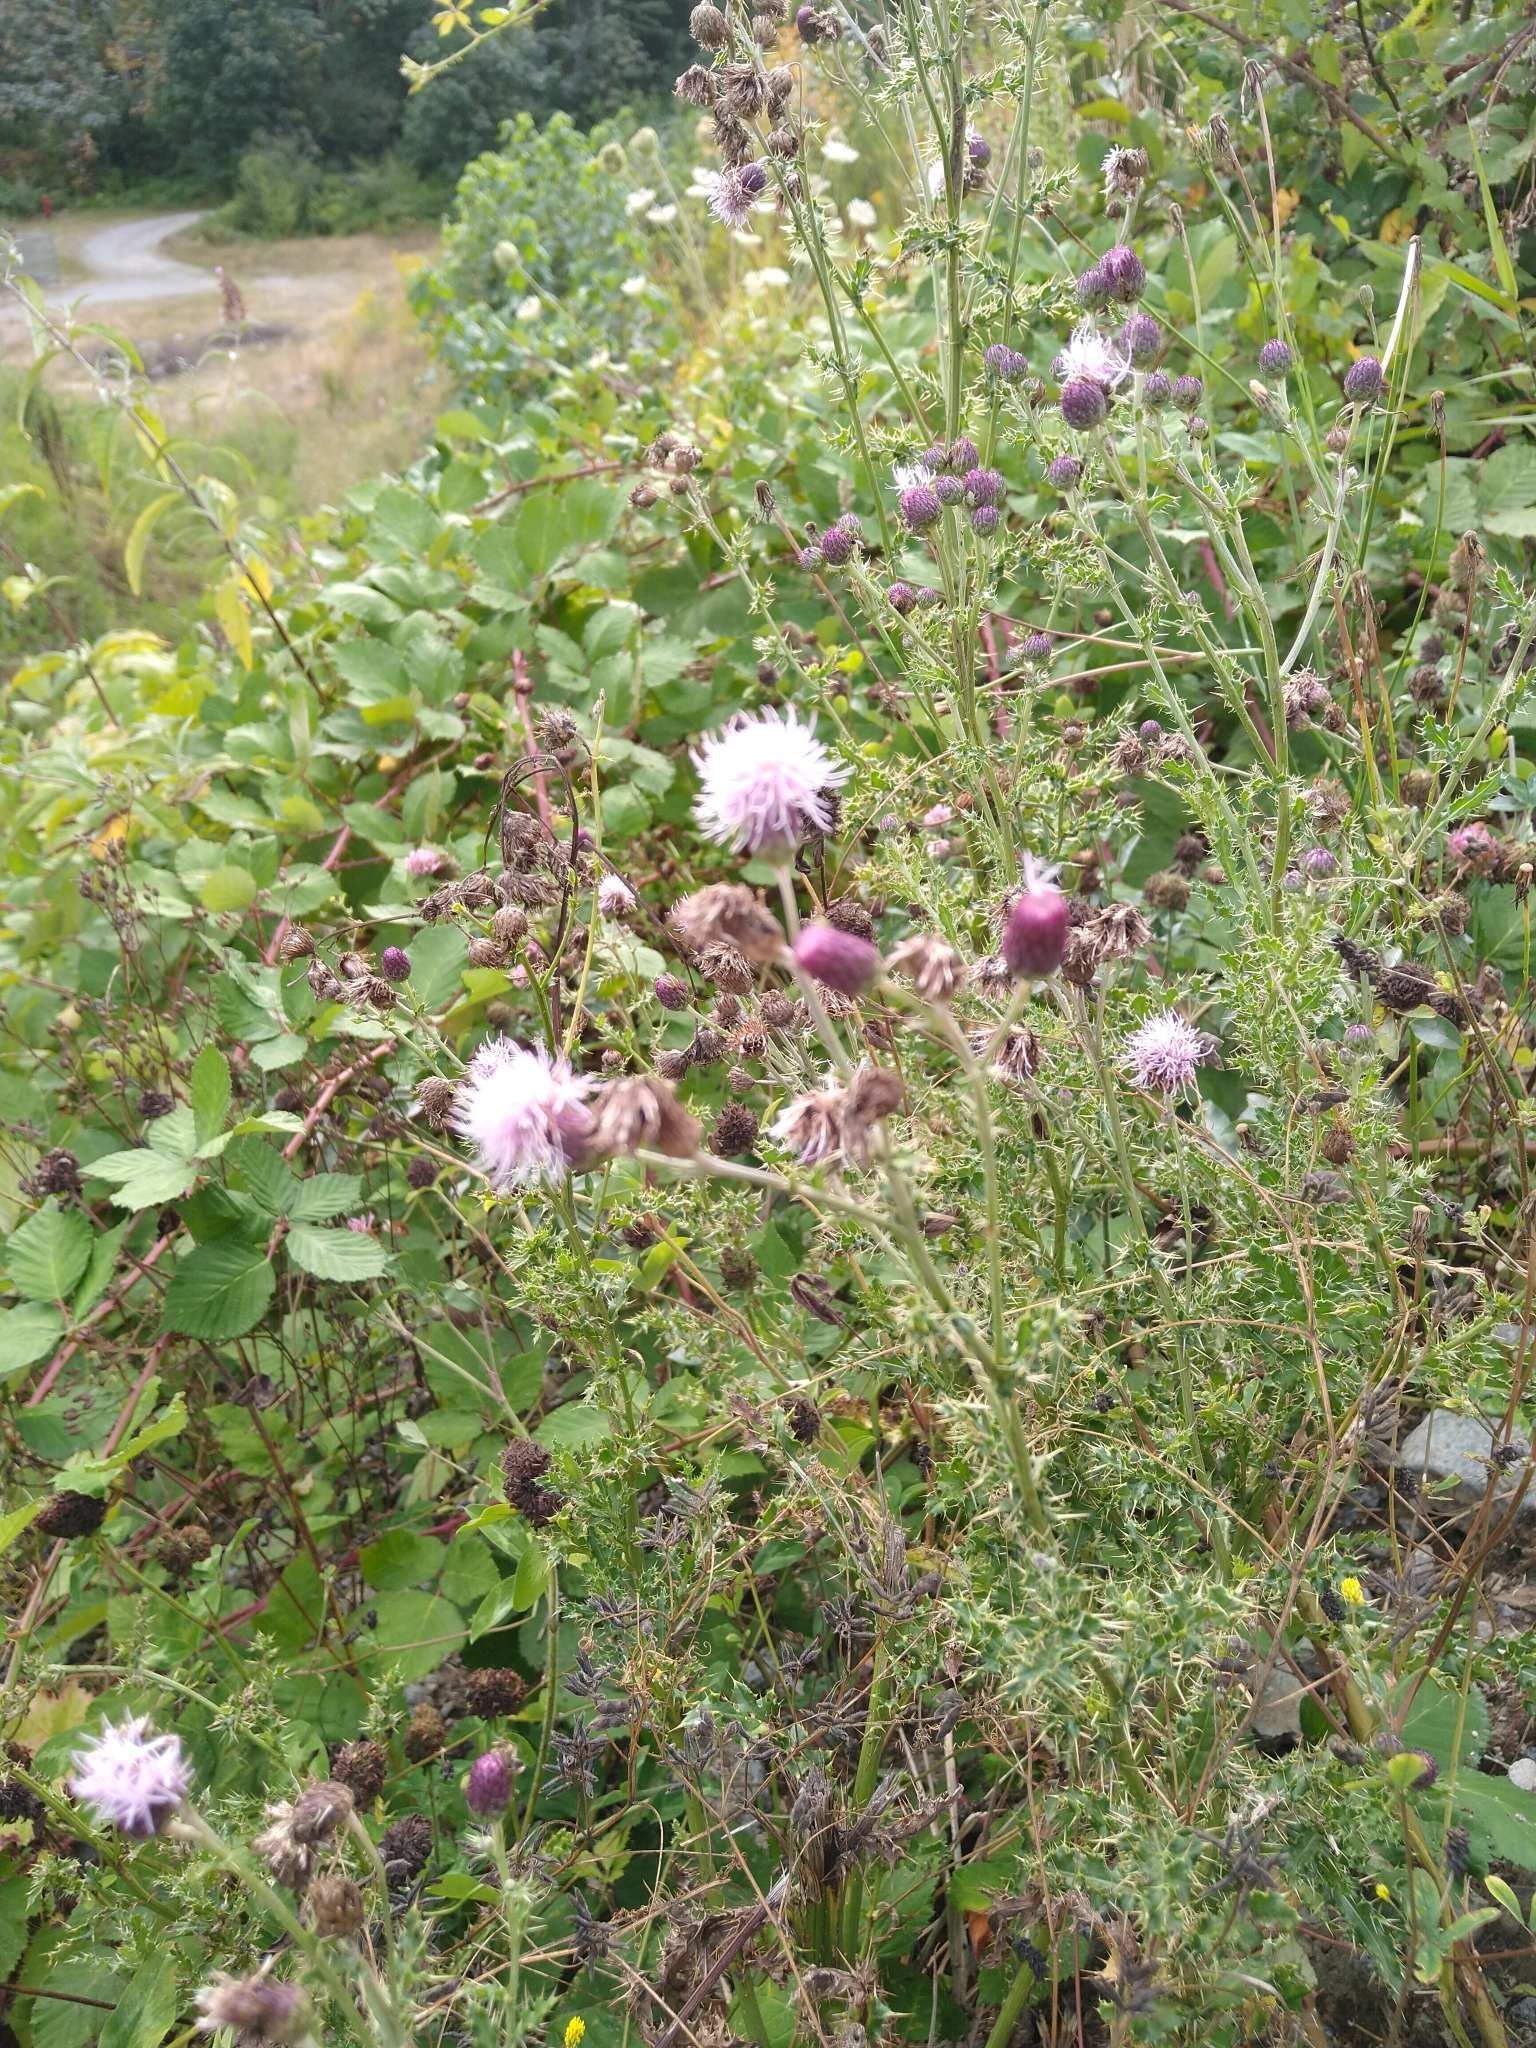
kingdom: Plantae
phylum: Tracheophyta
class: Magnoliopsida
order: Asterales
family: Asteraceae
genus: Cirsium
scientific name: Cirsium arvense
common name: Creeping thistle
